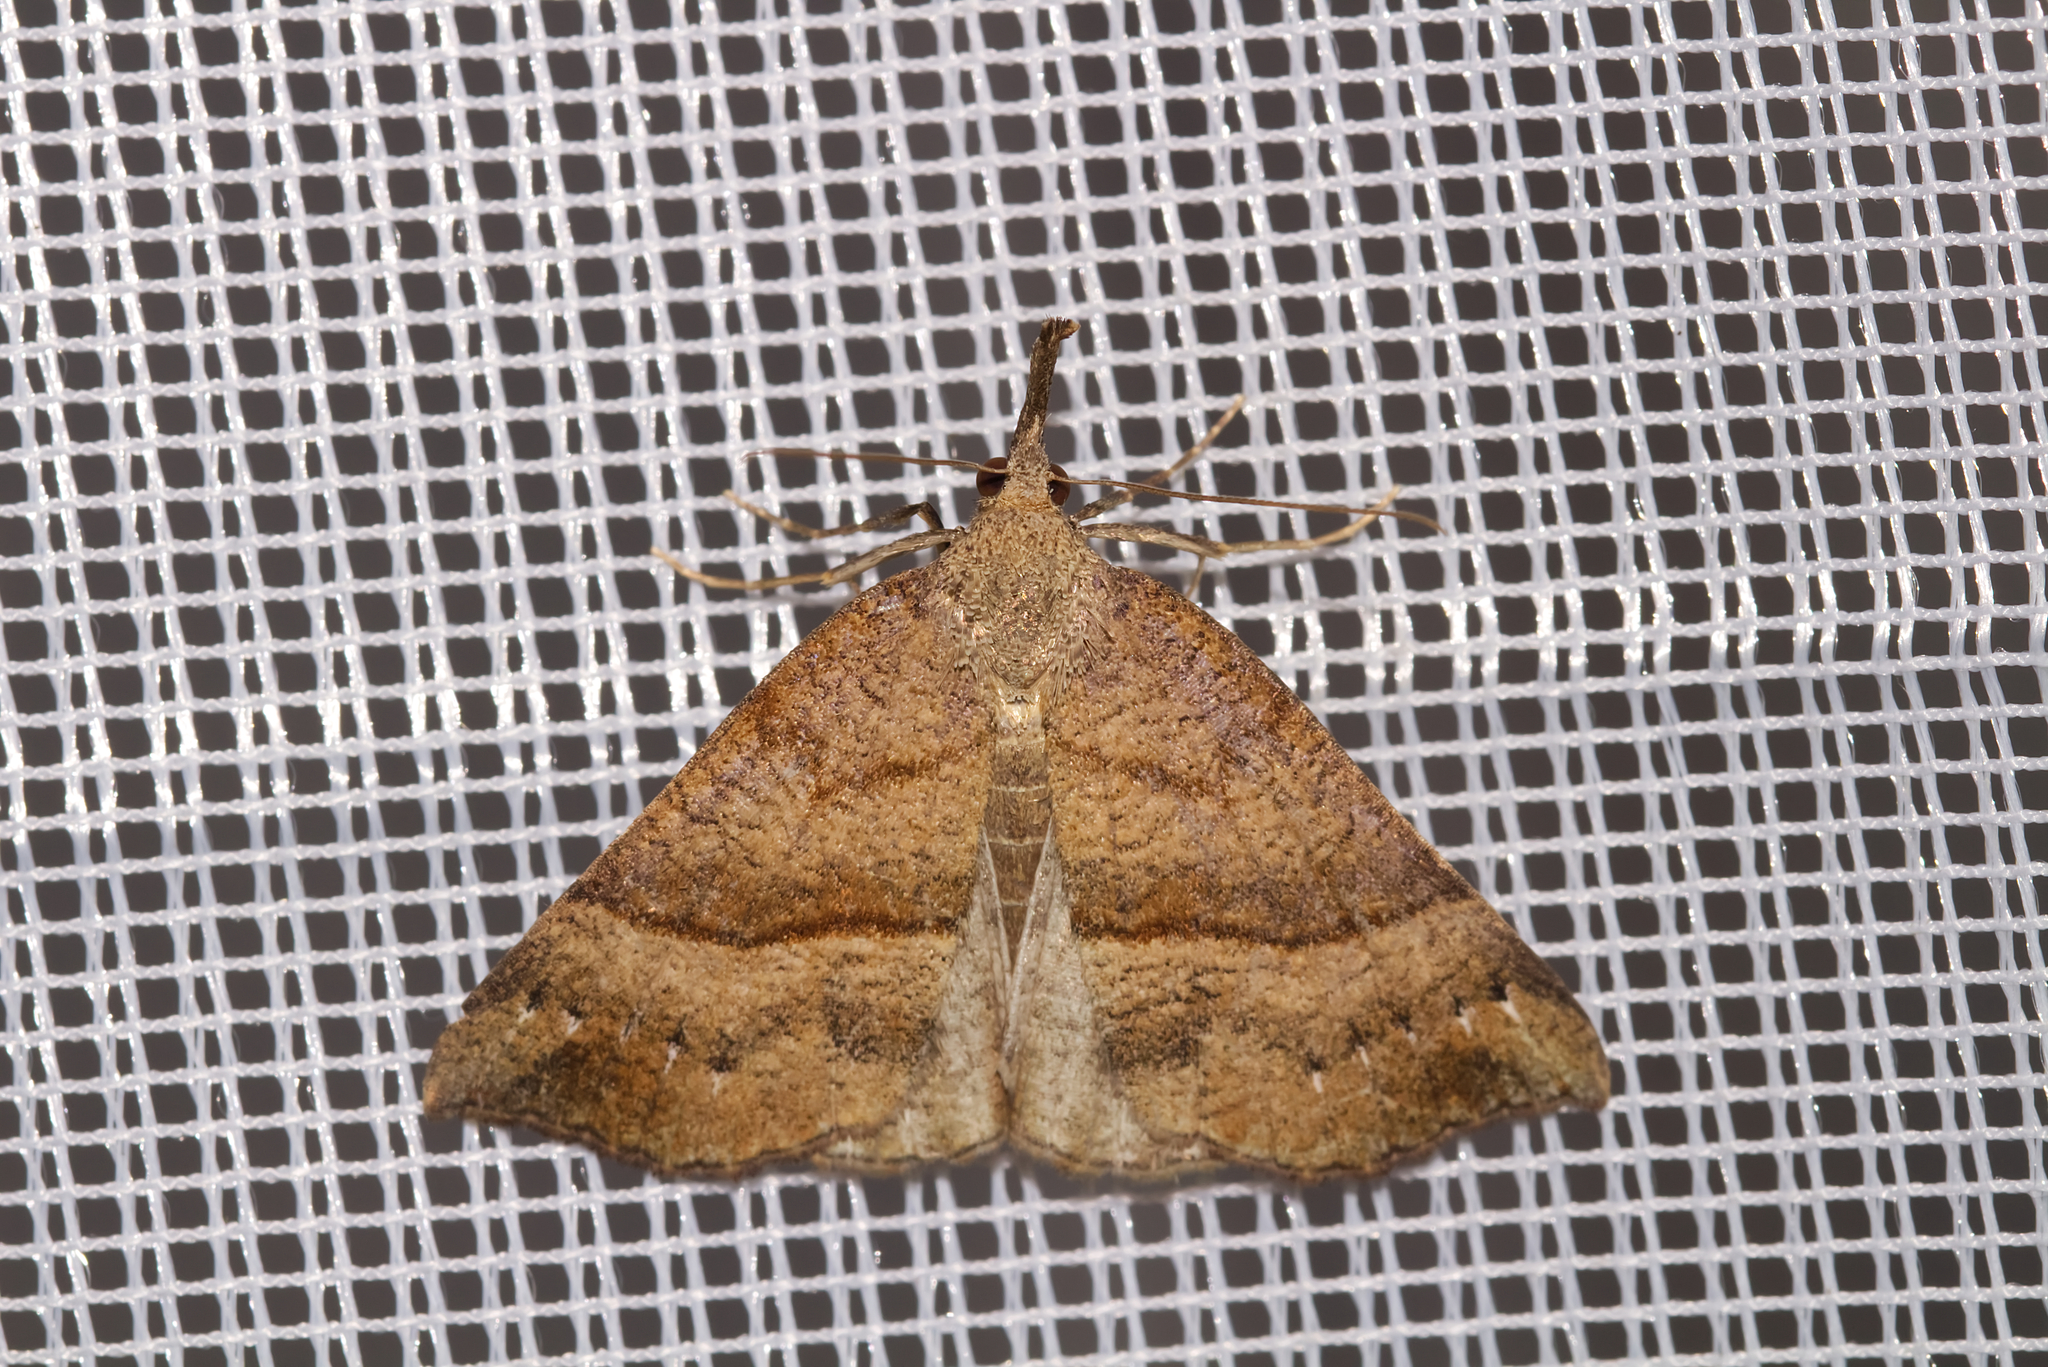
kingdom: Animalia
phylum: Arthropoda
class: Insecta
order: Lepidoptera
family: Erebidae
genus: Hypena
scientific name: Hypena proboscidalis
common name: Snout
